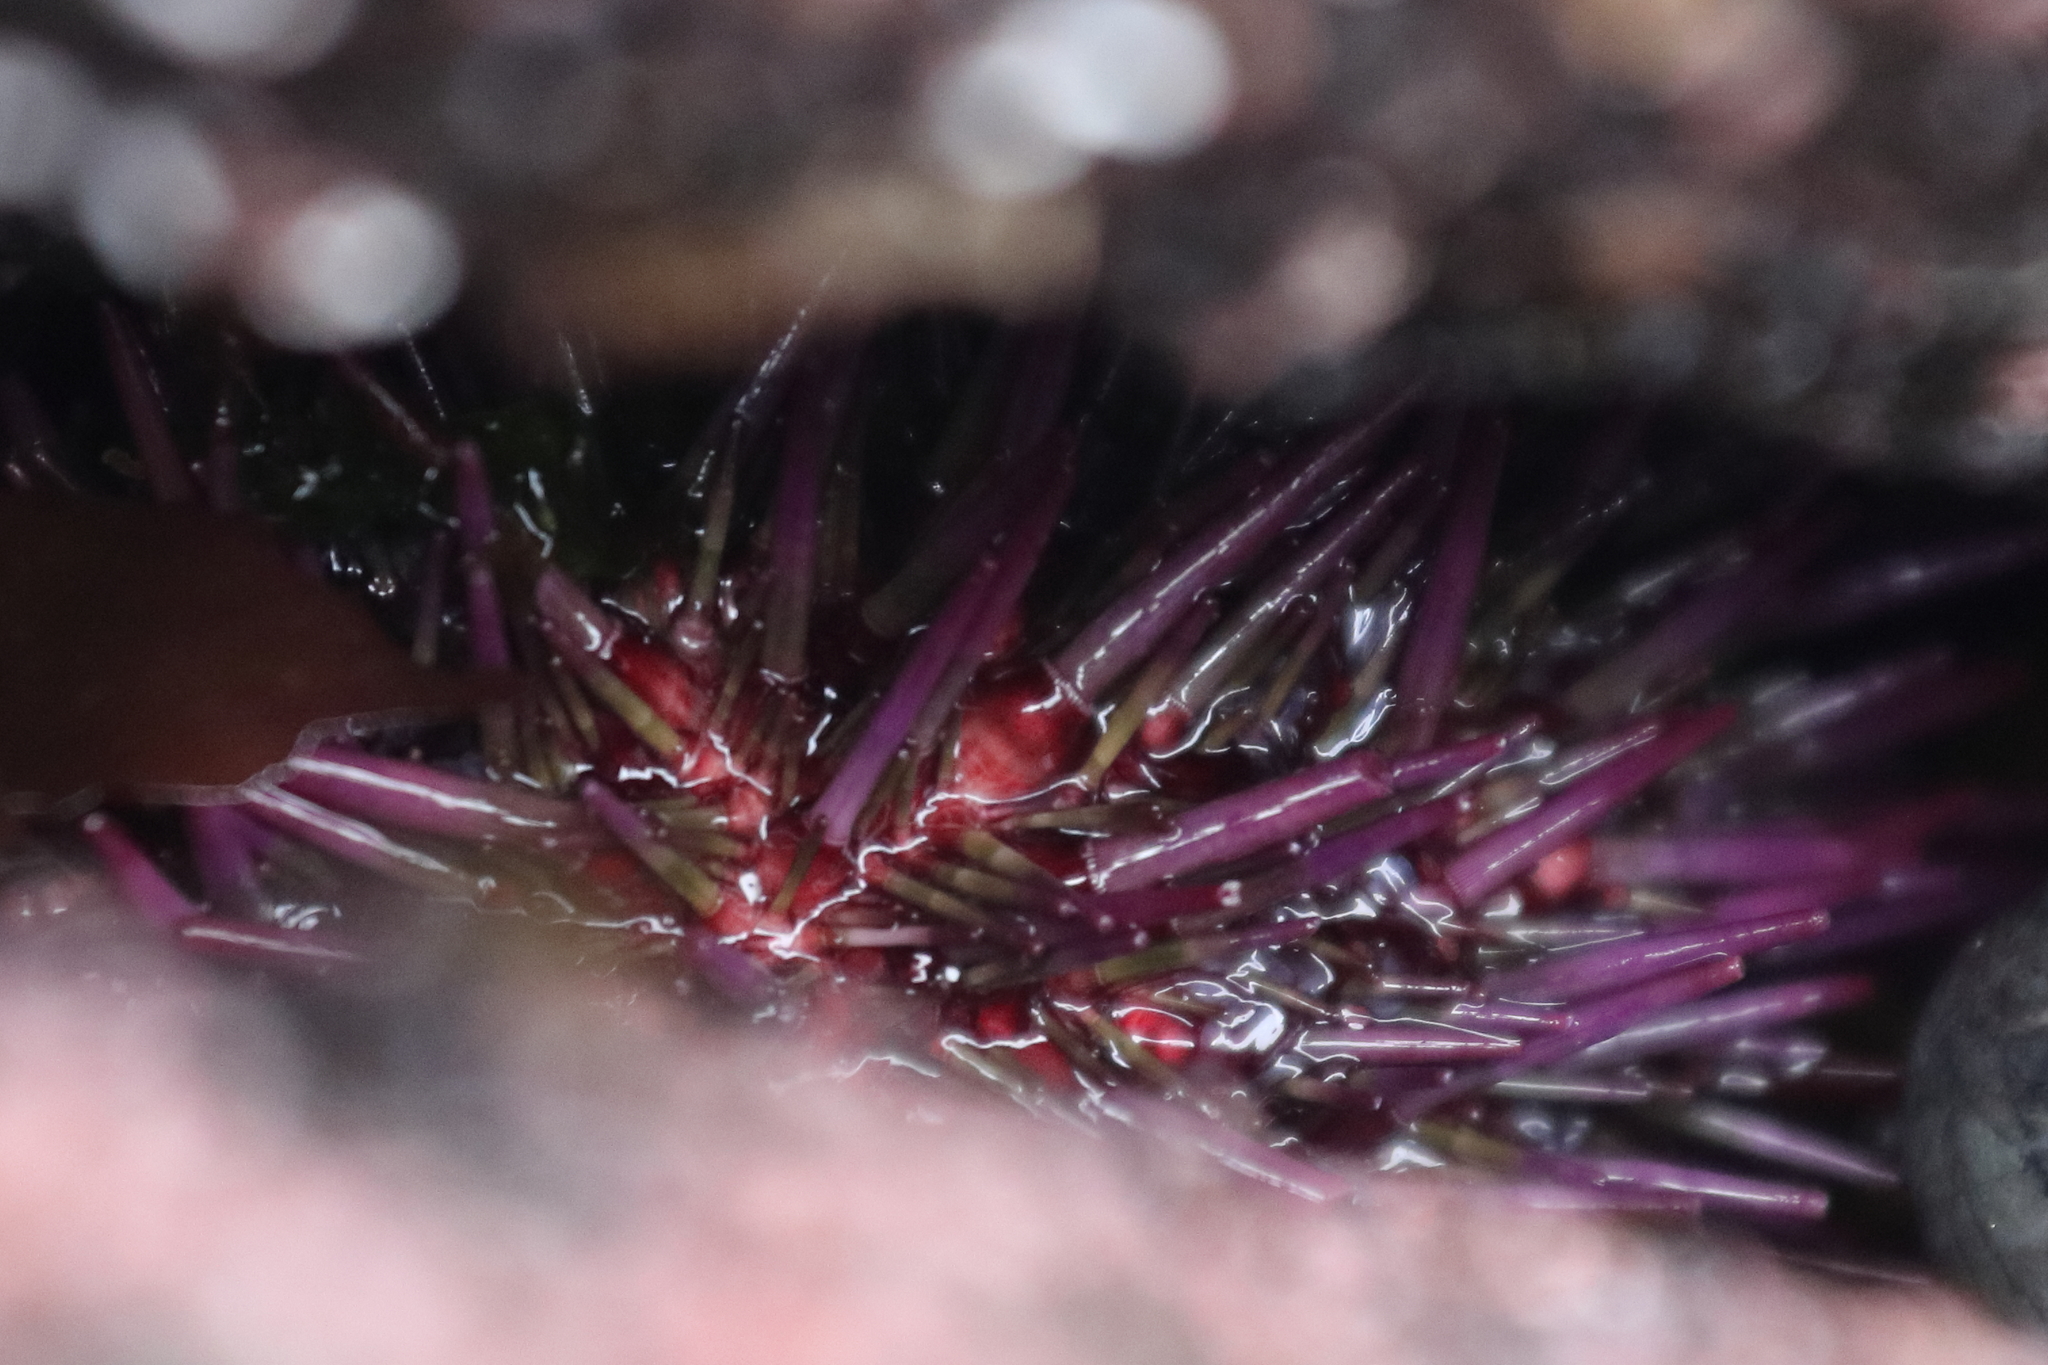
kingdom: Animalia
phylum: Echinodermata
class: Echinoidea
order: Camarodonta
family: Strongylocentrotidae
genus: Strongylocentrotus
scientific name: Strongylocentrotus purpuratus
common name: Purple sea urchin
